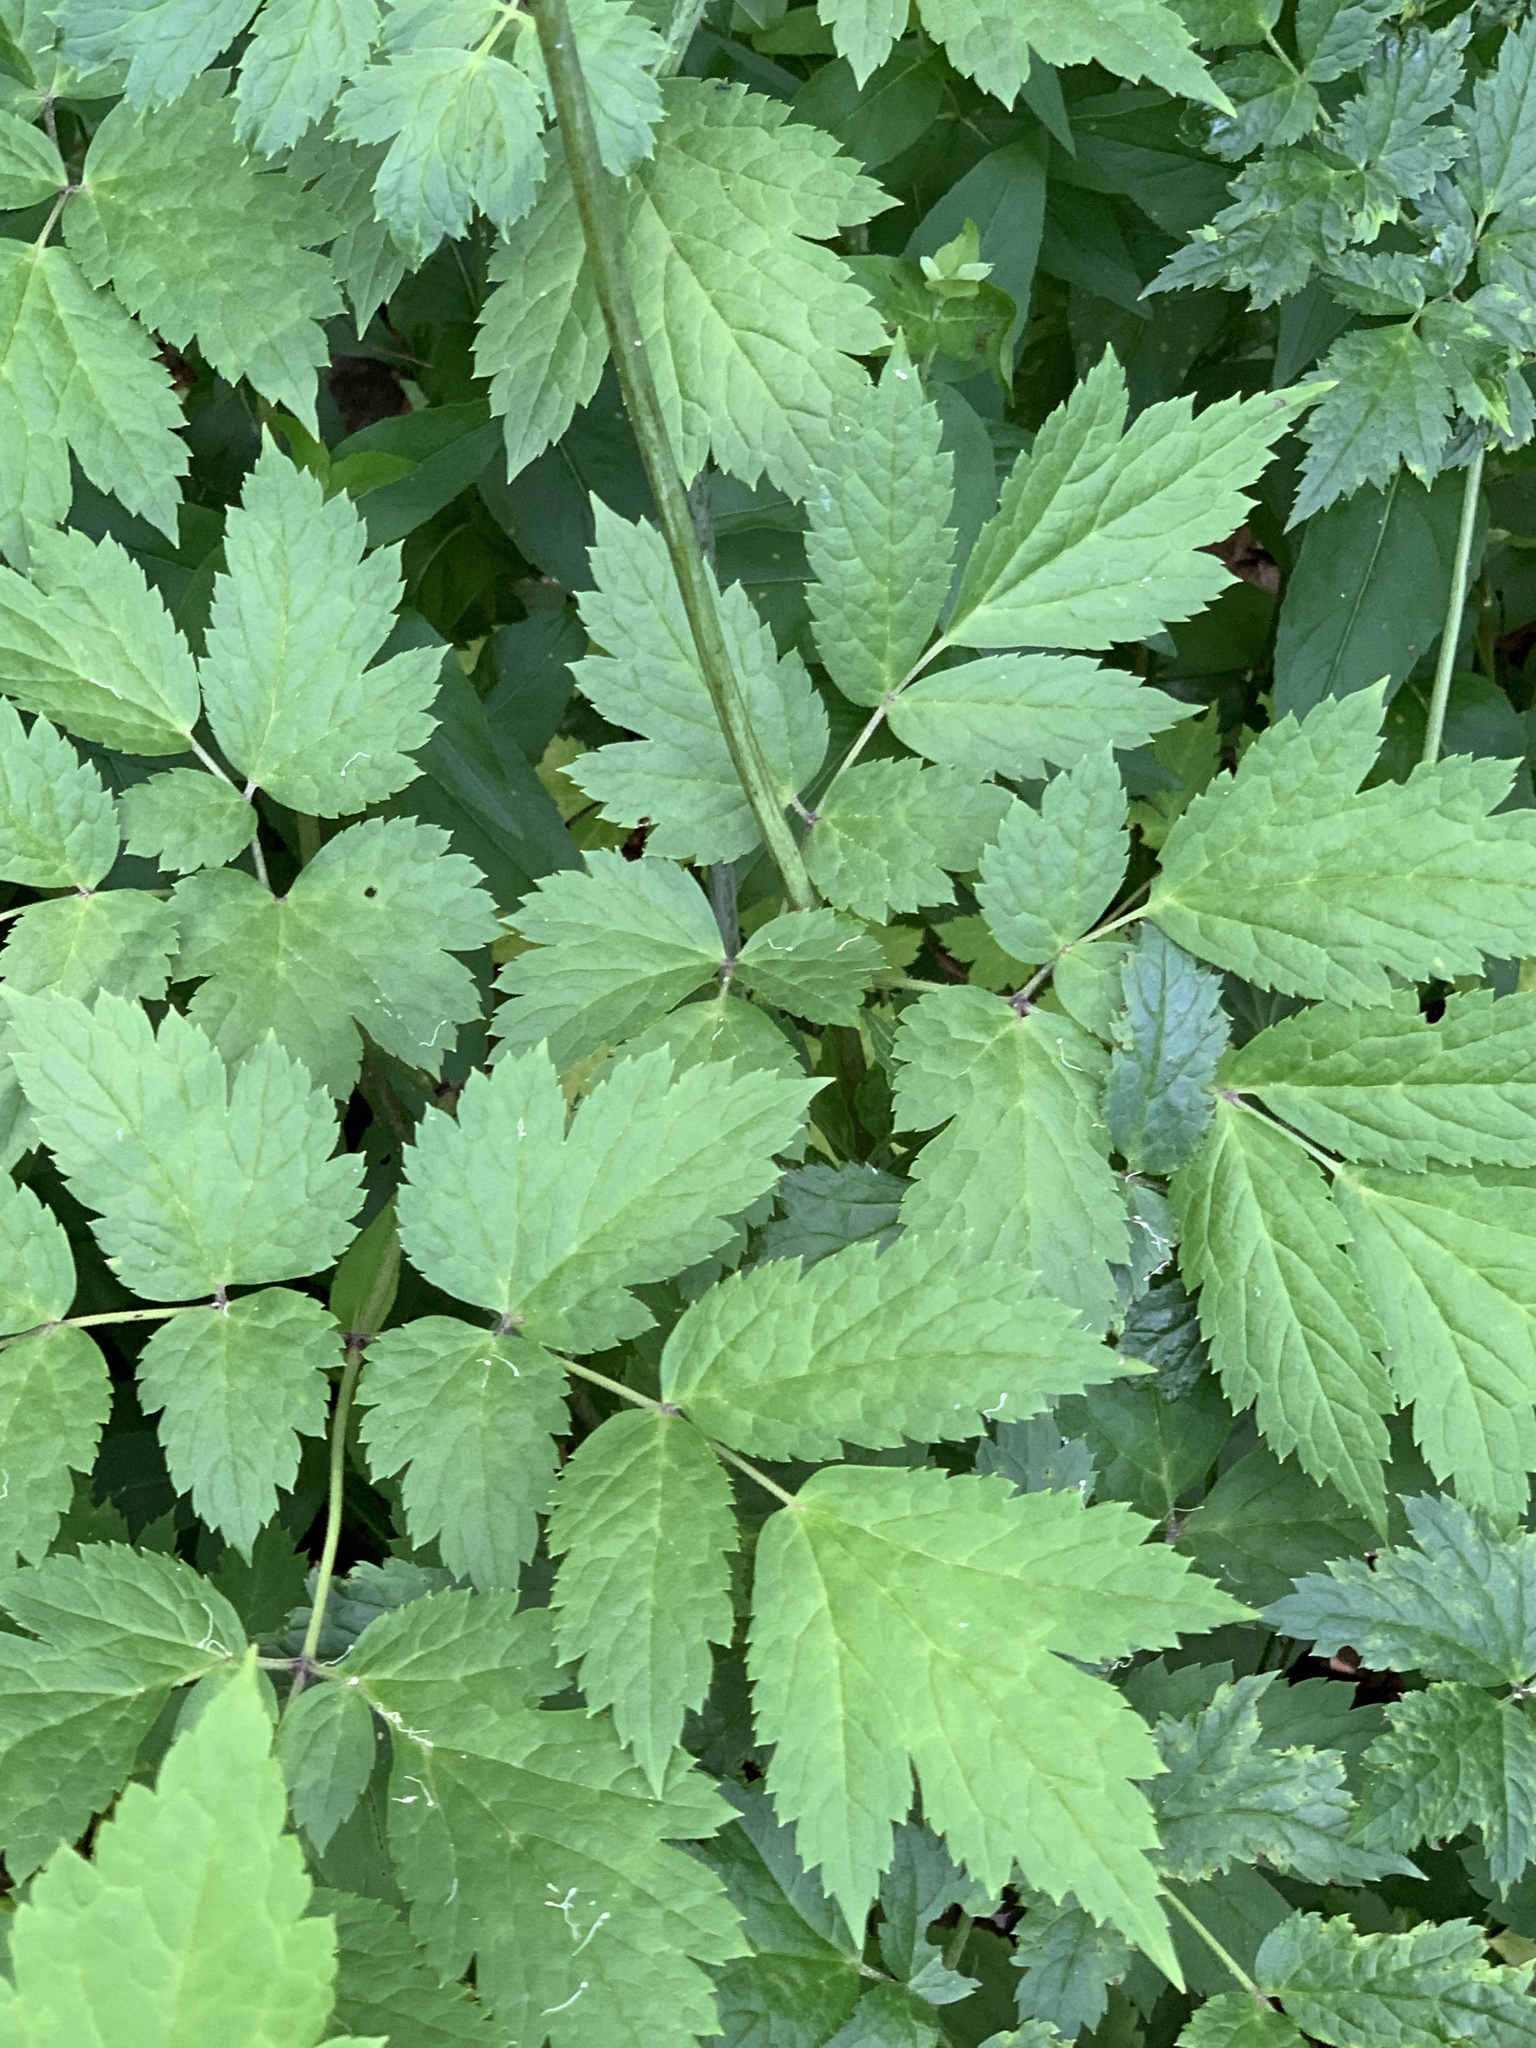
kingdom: Plantae
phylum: Tracheophyta
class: Magnoliopsida
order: Ranunculales
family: Ranunculaceae
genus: Actaea
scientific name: Actaea racemosa
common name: Black cohosh
